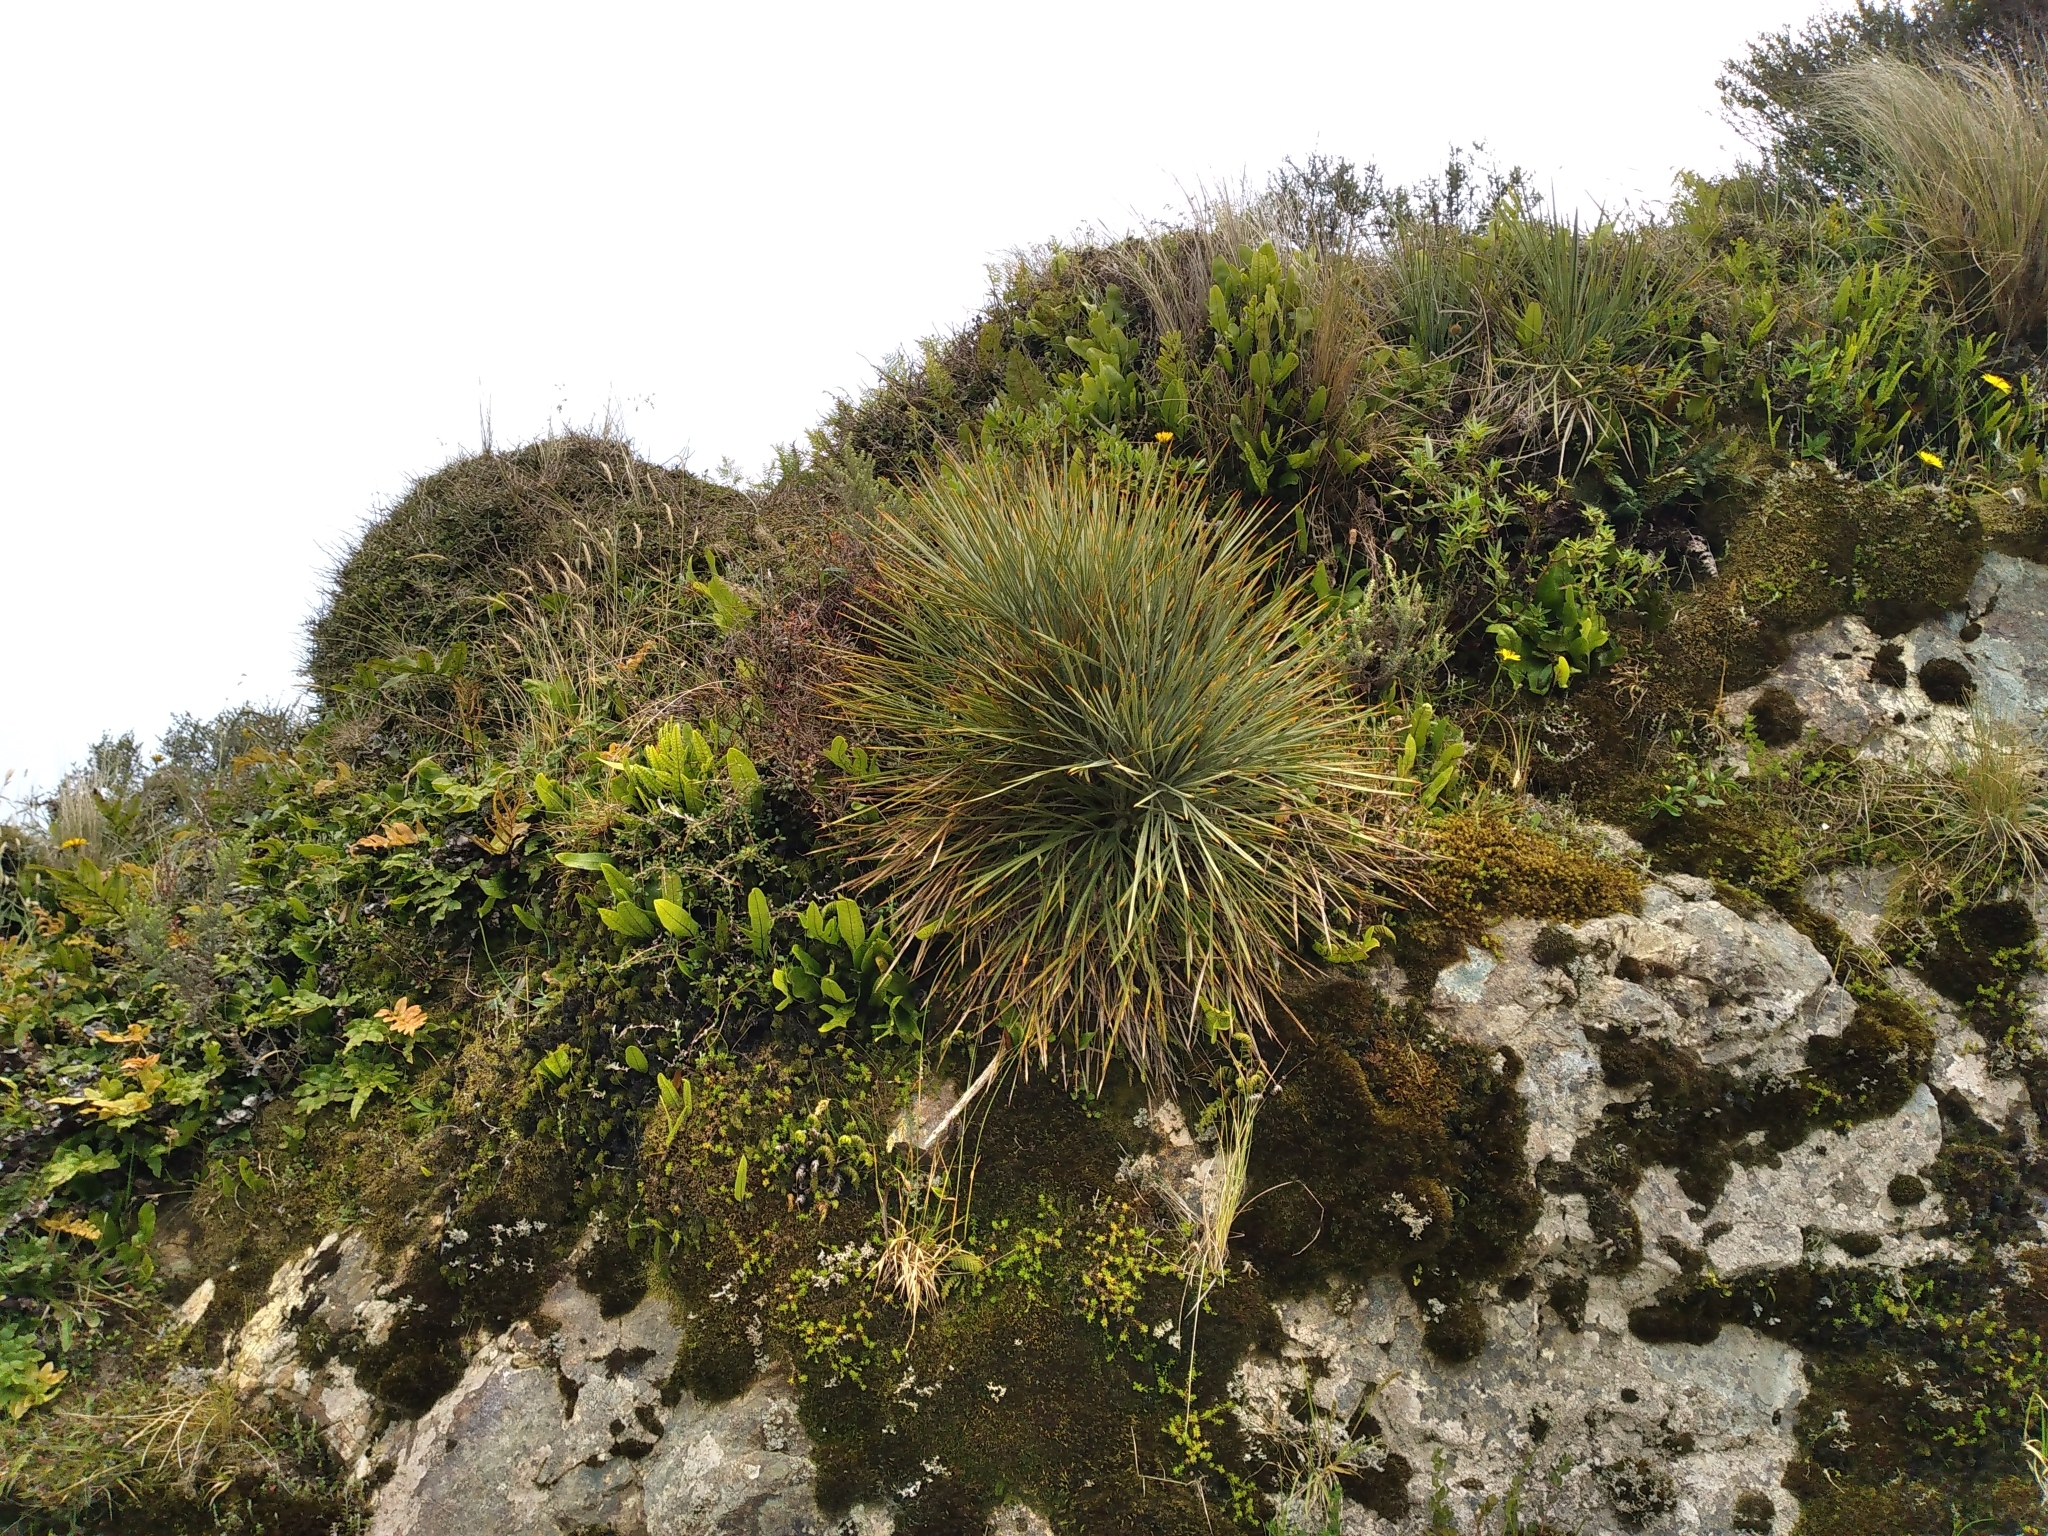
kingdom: Plantae
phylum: Tracheophyta
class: Magnoliopsida
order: Apiales
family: Apiaceae
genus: Aciphylla
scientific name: Aciphylla squarrosa
